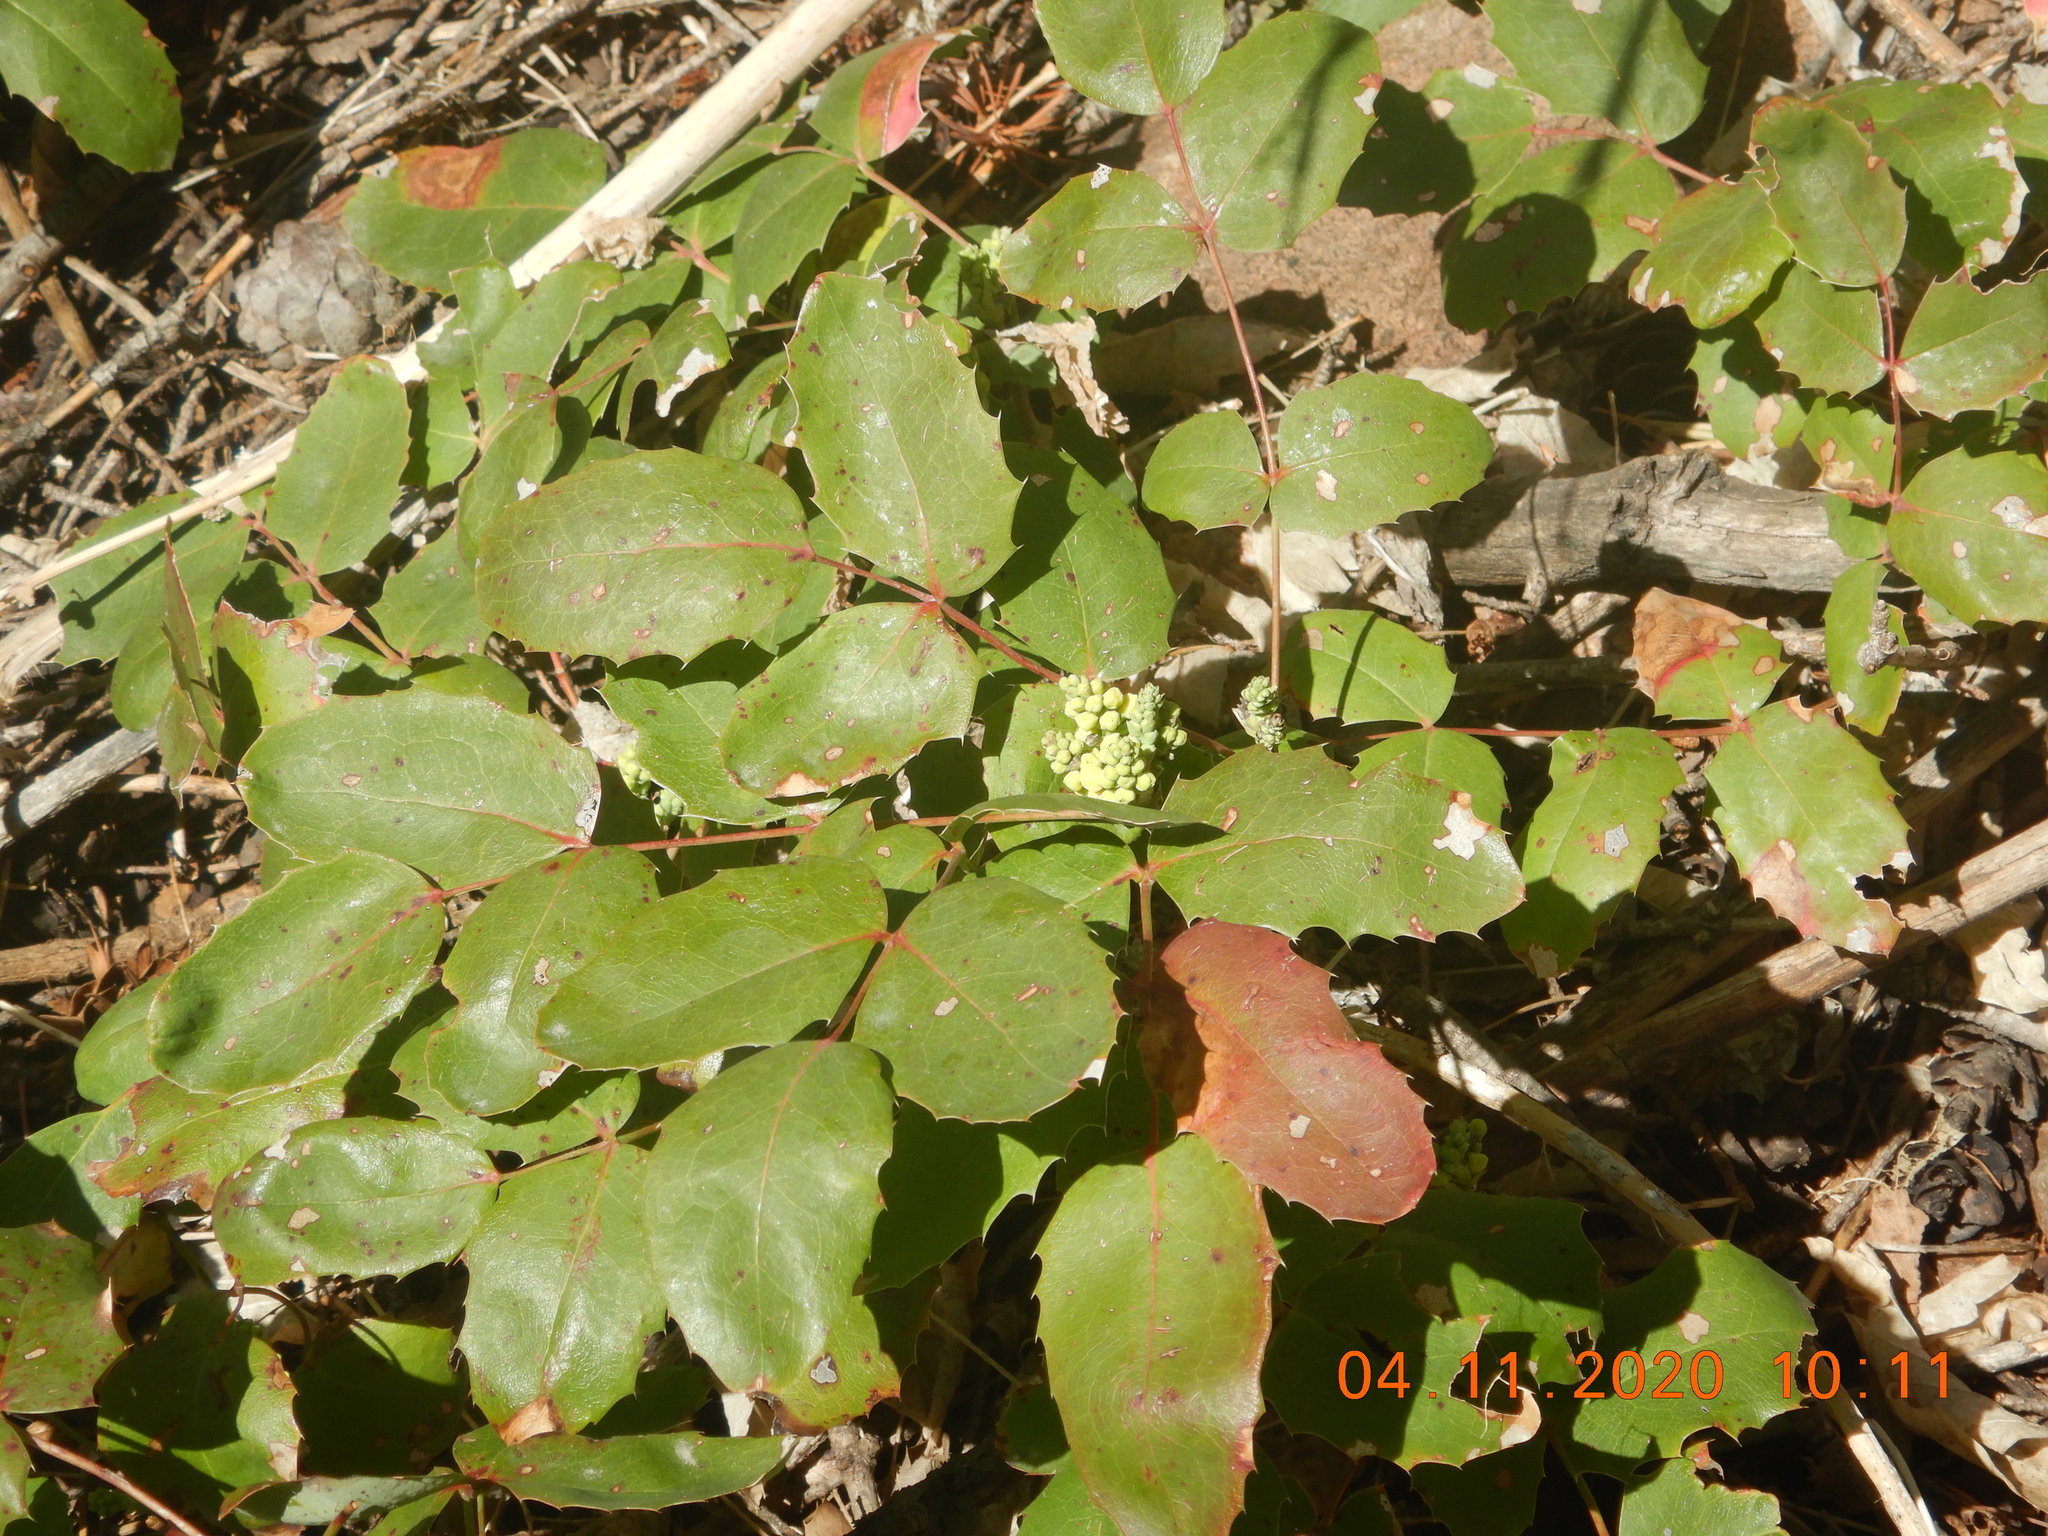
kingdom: Plantae
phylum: Tracheophyta
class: Magnoliopsida
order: Ranunculales
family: Berberidaceae
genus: Mahonia
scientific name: Mahonia repens
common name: Creeping oregon-grape
